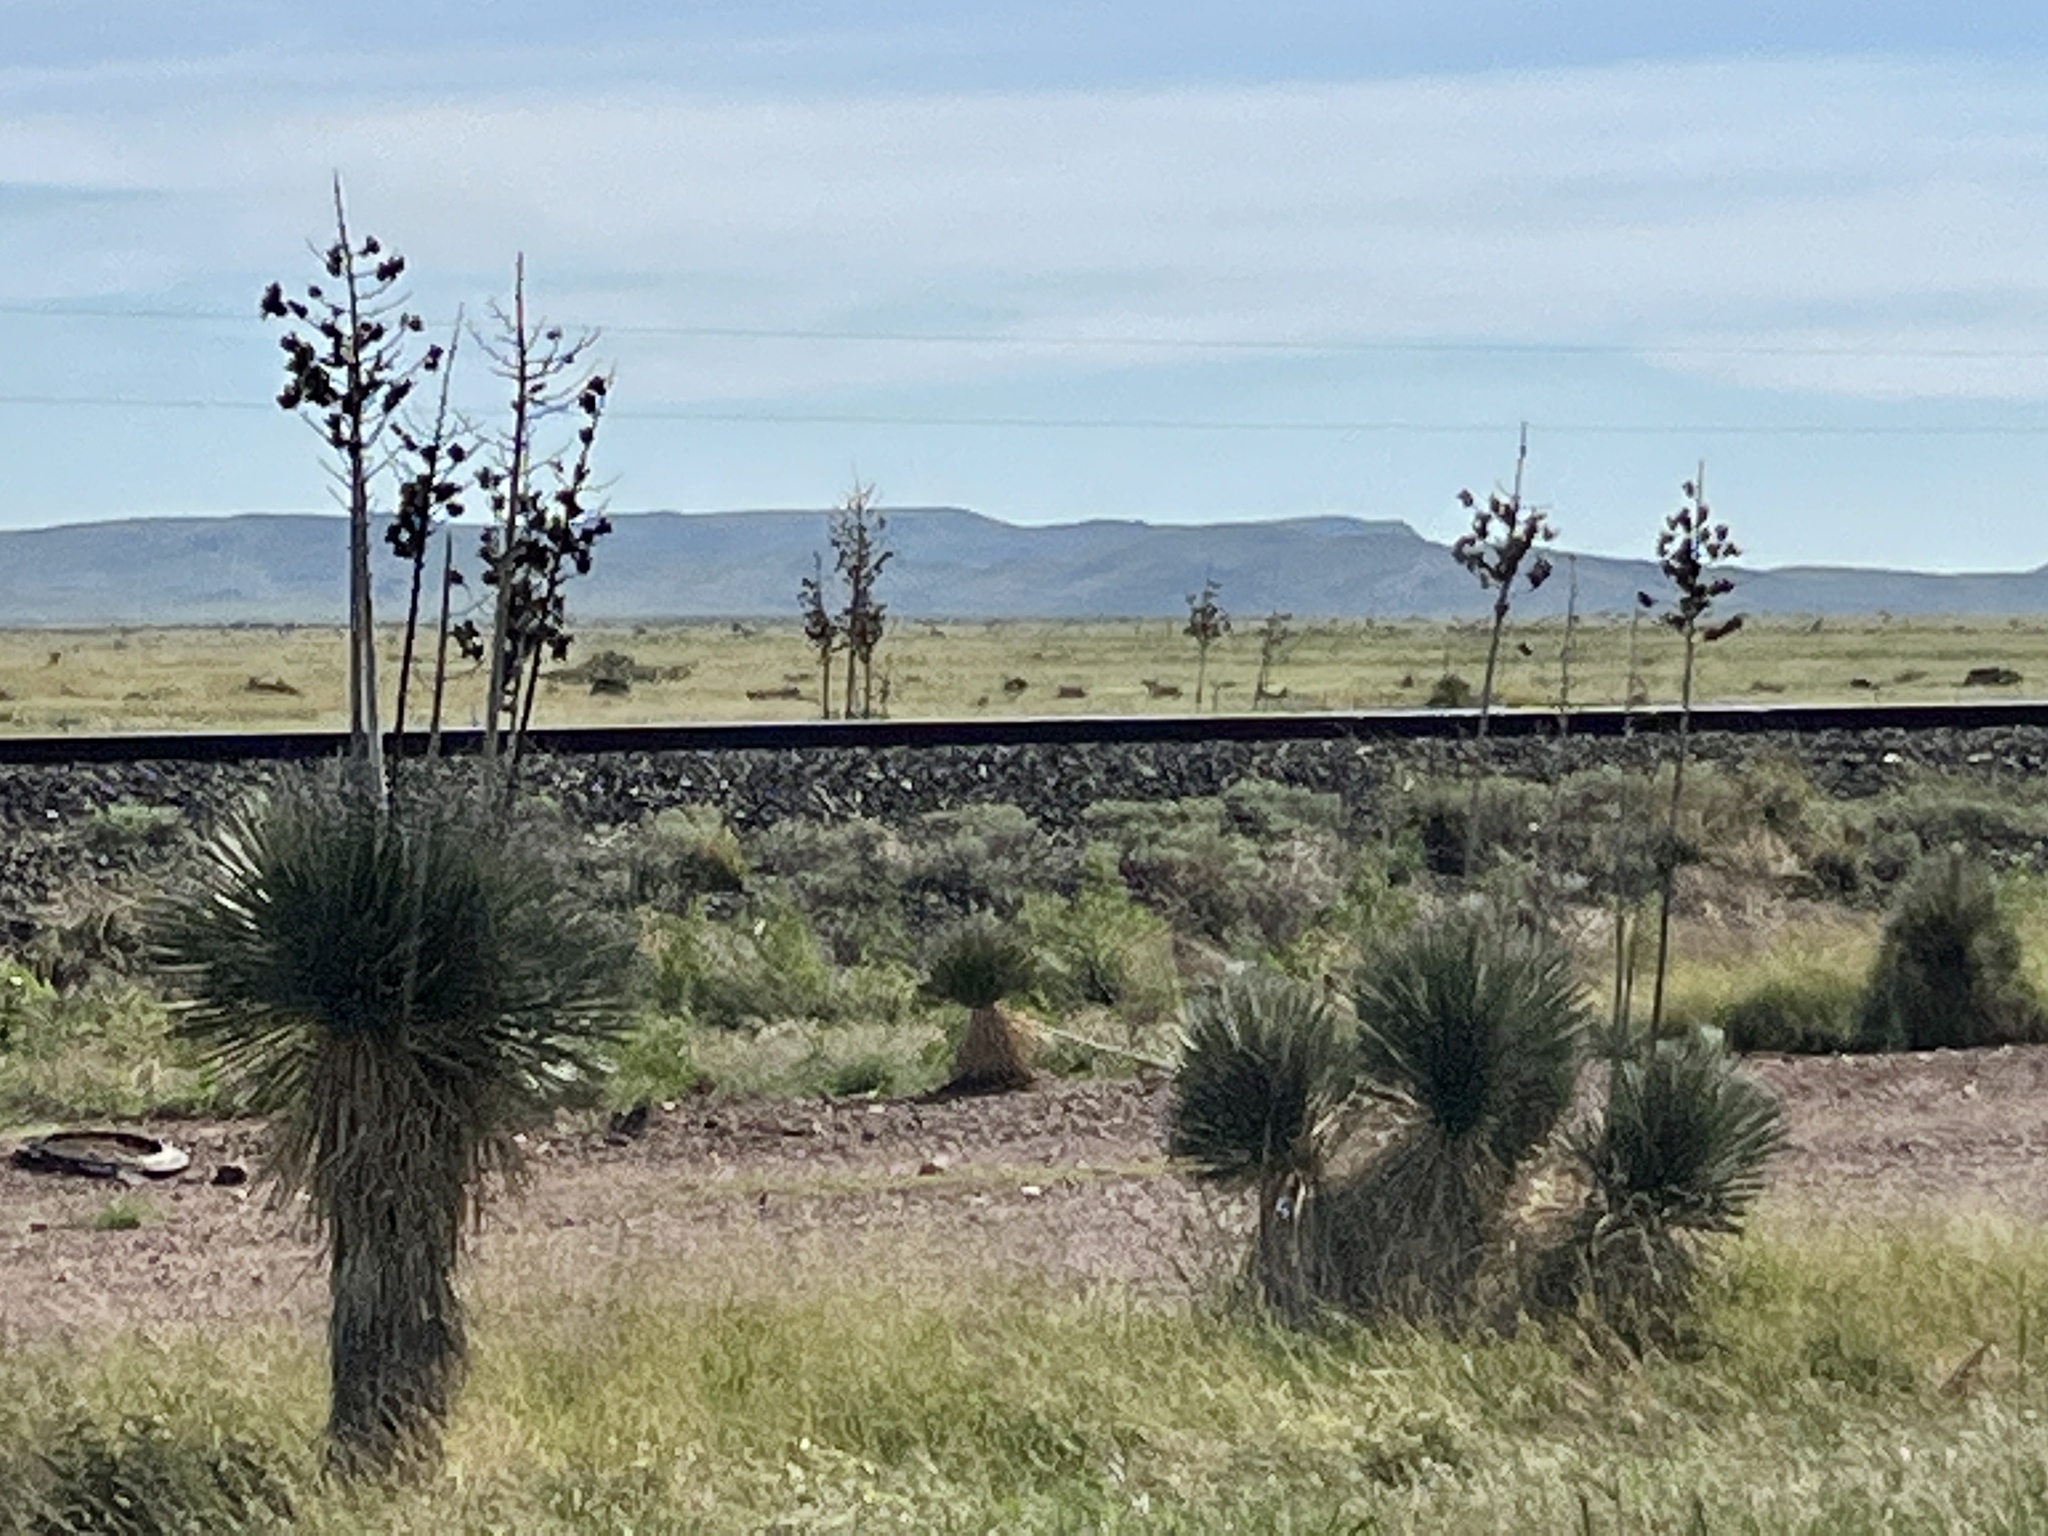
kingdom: Plantae
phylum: Tracheophyta
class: Liliopsida
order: Asparagales
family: Asparagaceae
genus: Yucca
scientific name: Yucca elata
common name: Palmella
